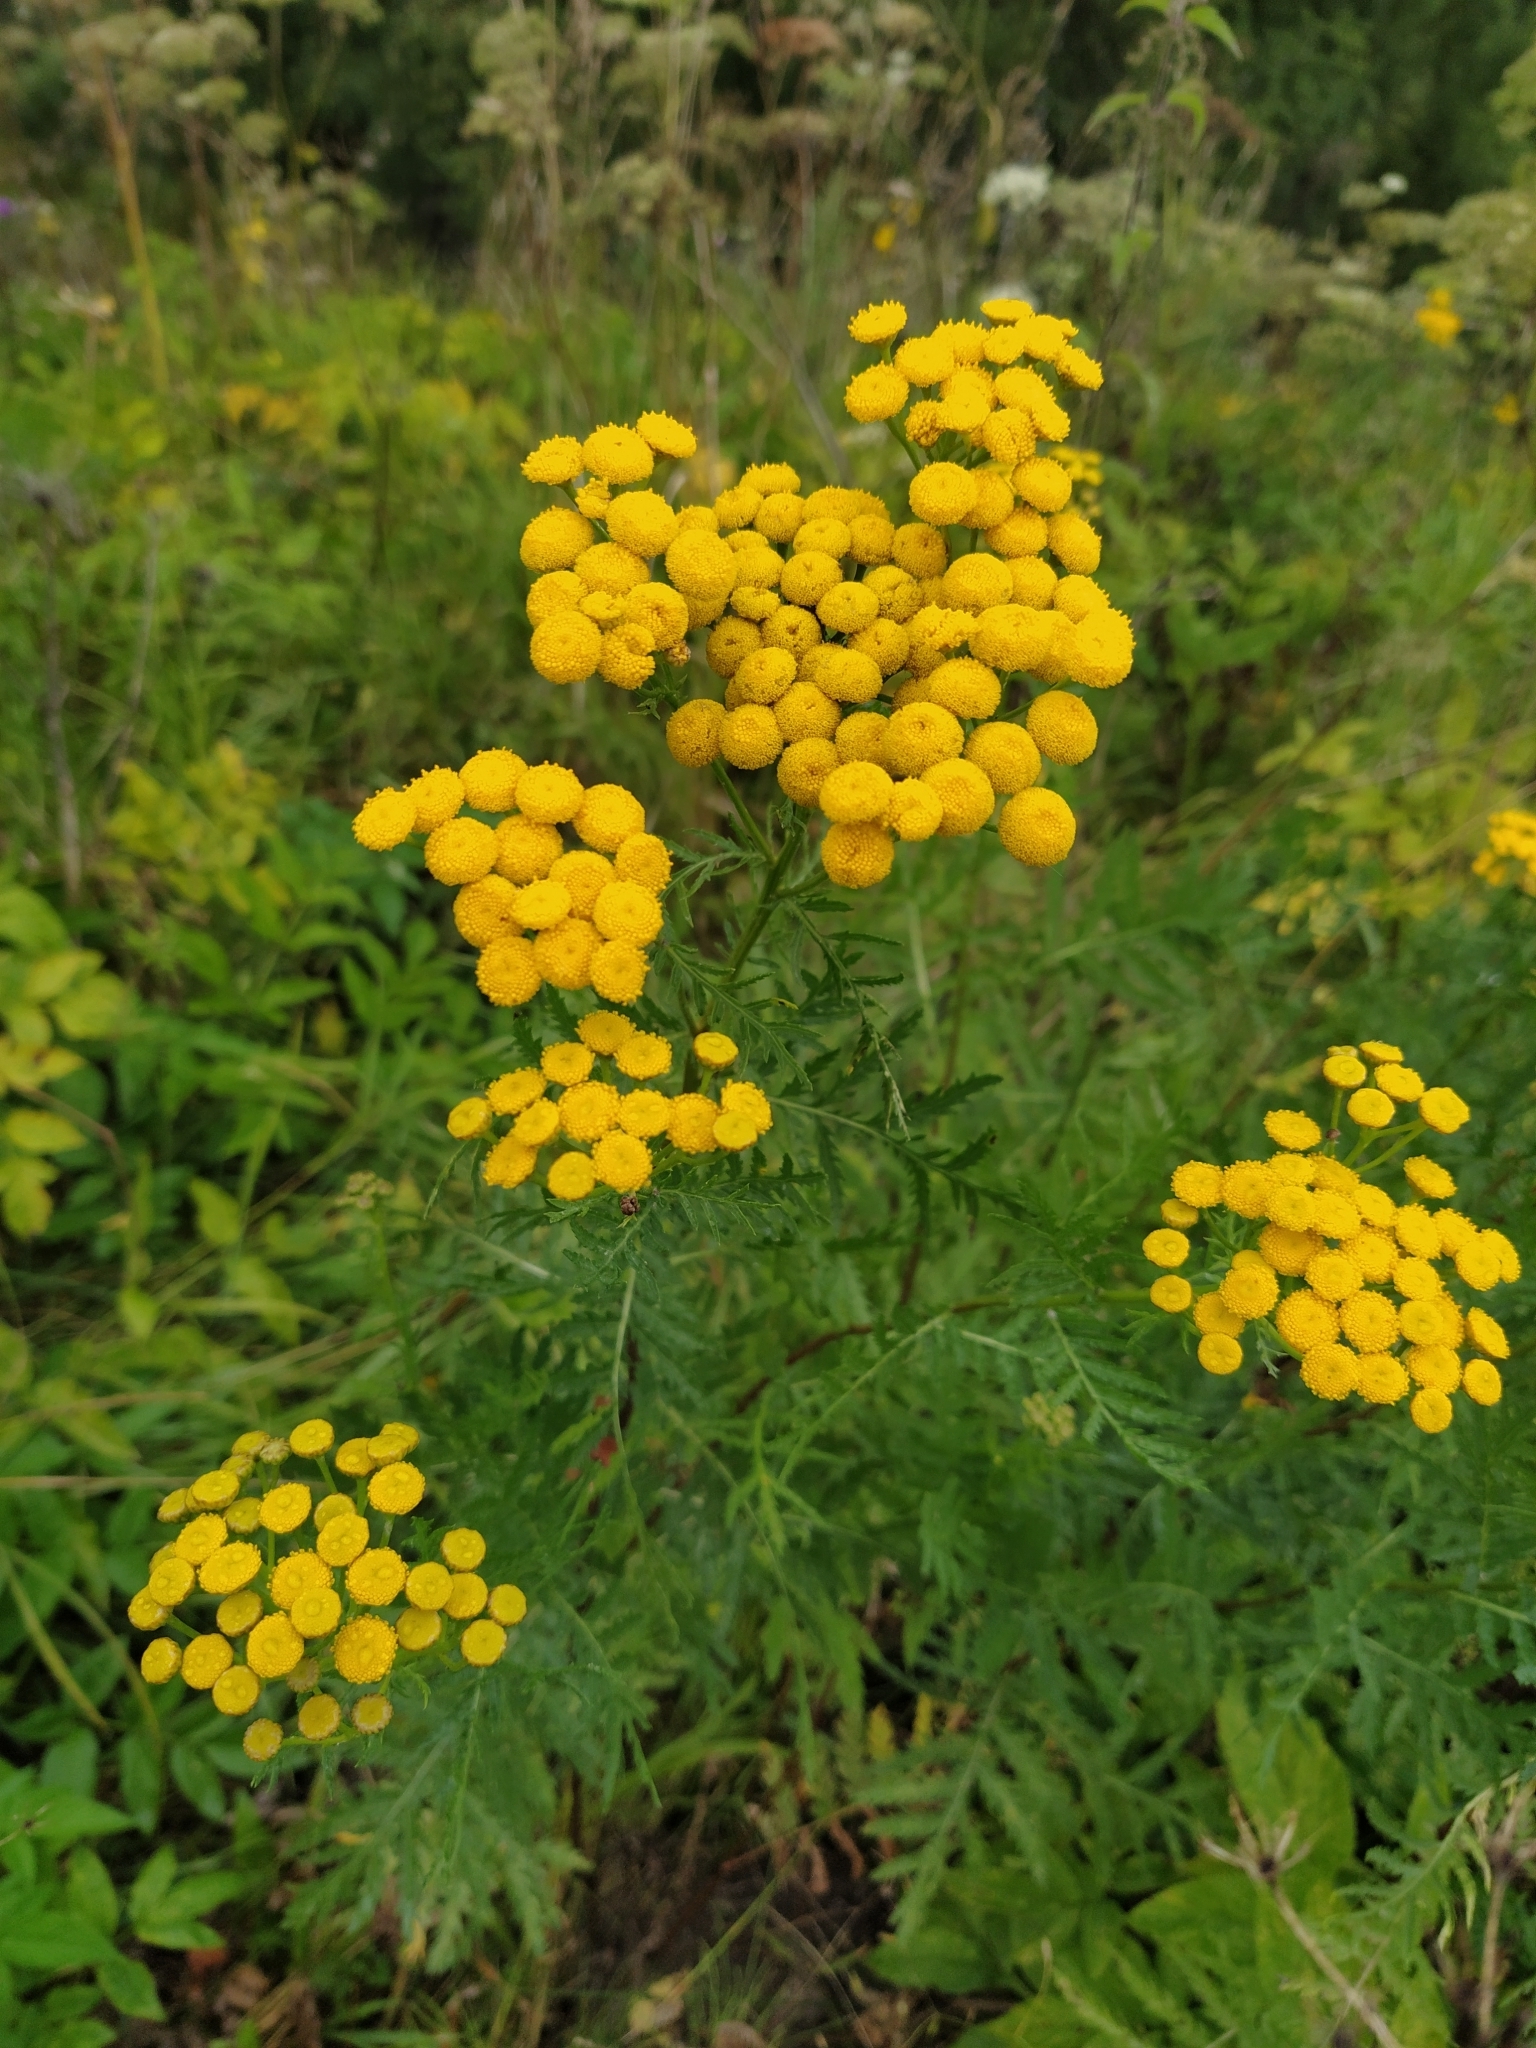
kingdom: Plantae
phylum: Tracheophyta
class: Magnoliopsida
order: Asterales
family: Asteraceae
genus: Tanacetum
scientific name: Tanacetum vulgare
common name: Common tansy
